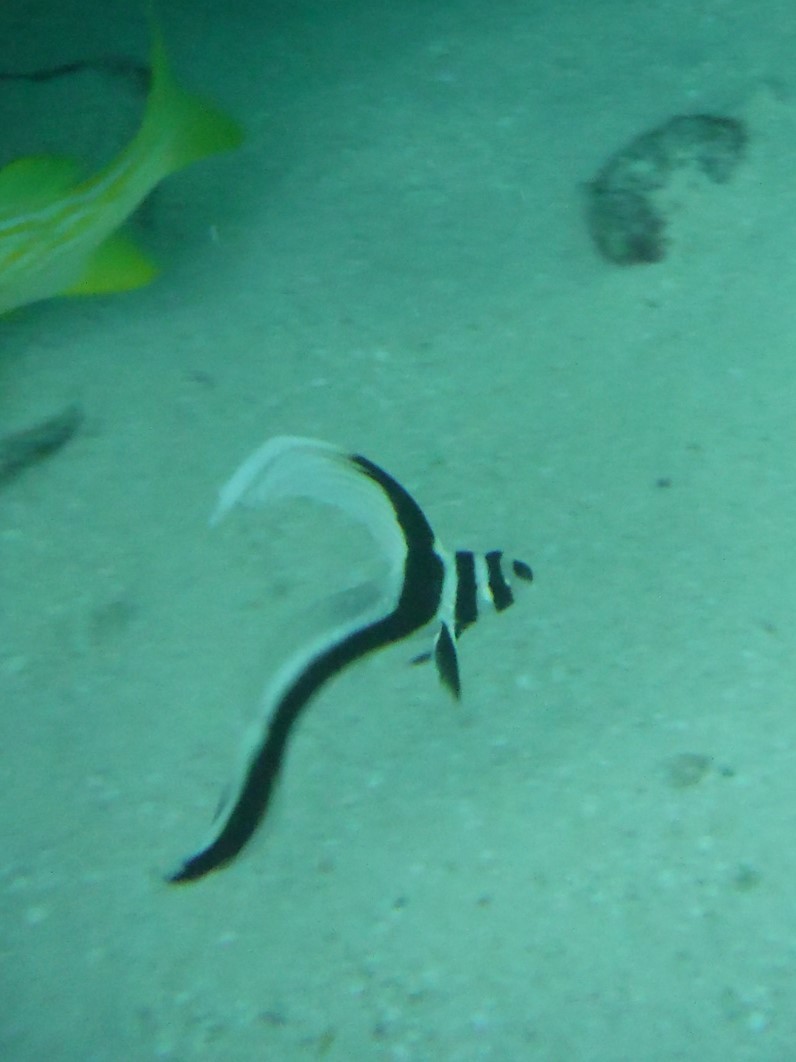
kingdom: Animalia
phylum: Chordata
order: Perciformes
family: Sciaenidae
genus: Equetus
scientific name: Equetus punctatus
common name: Spotted drum
